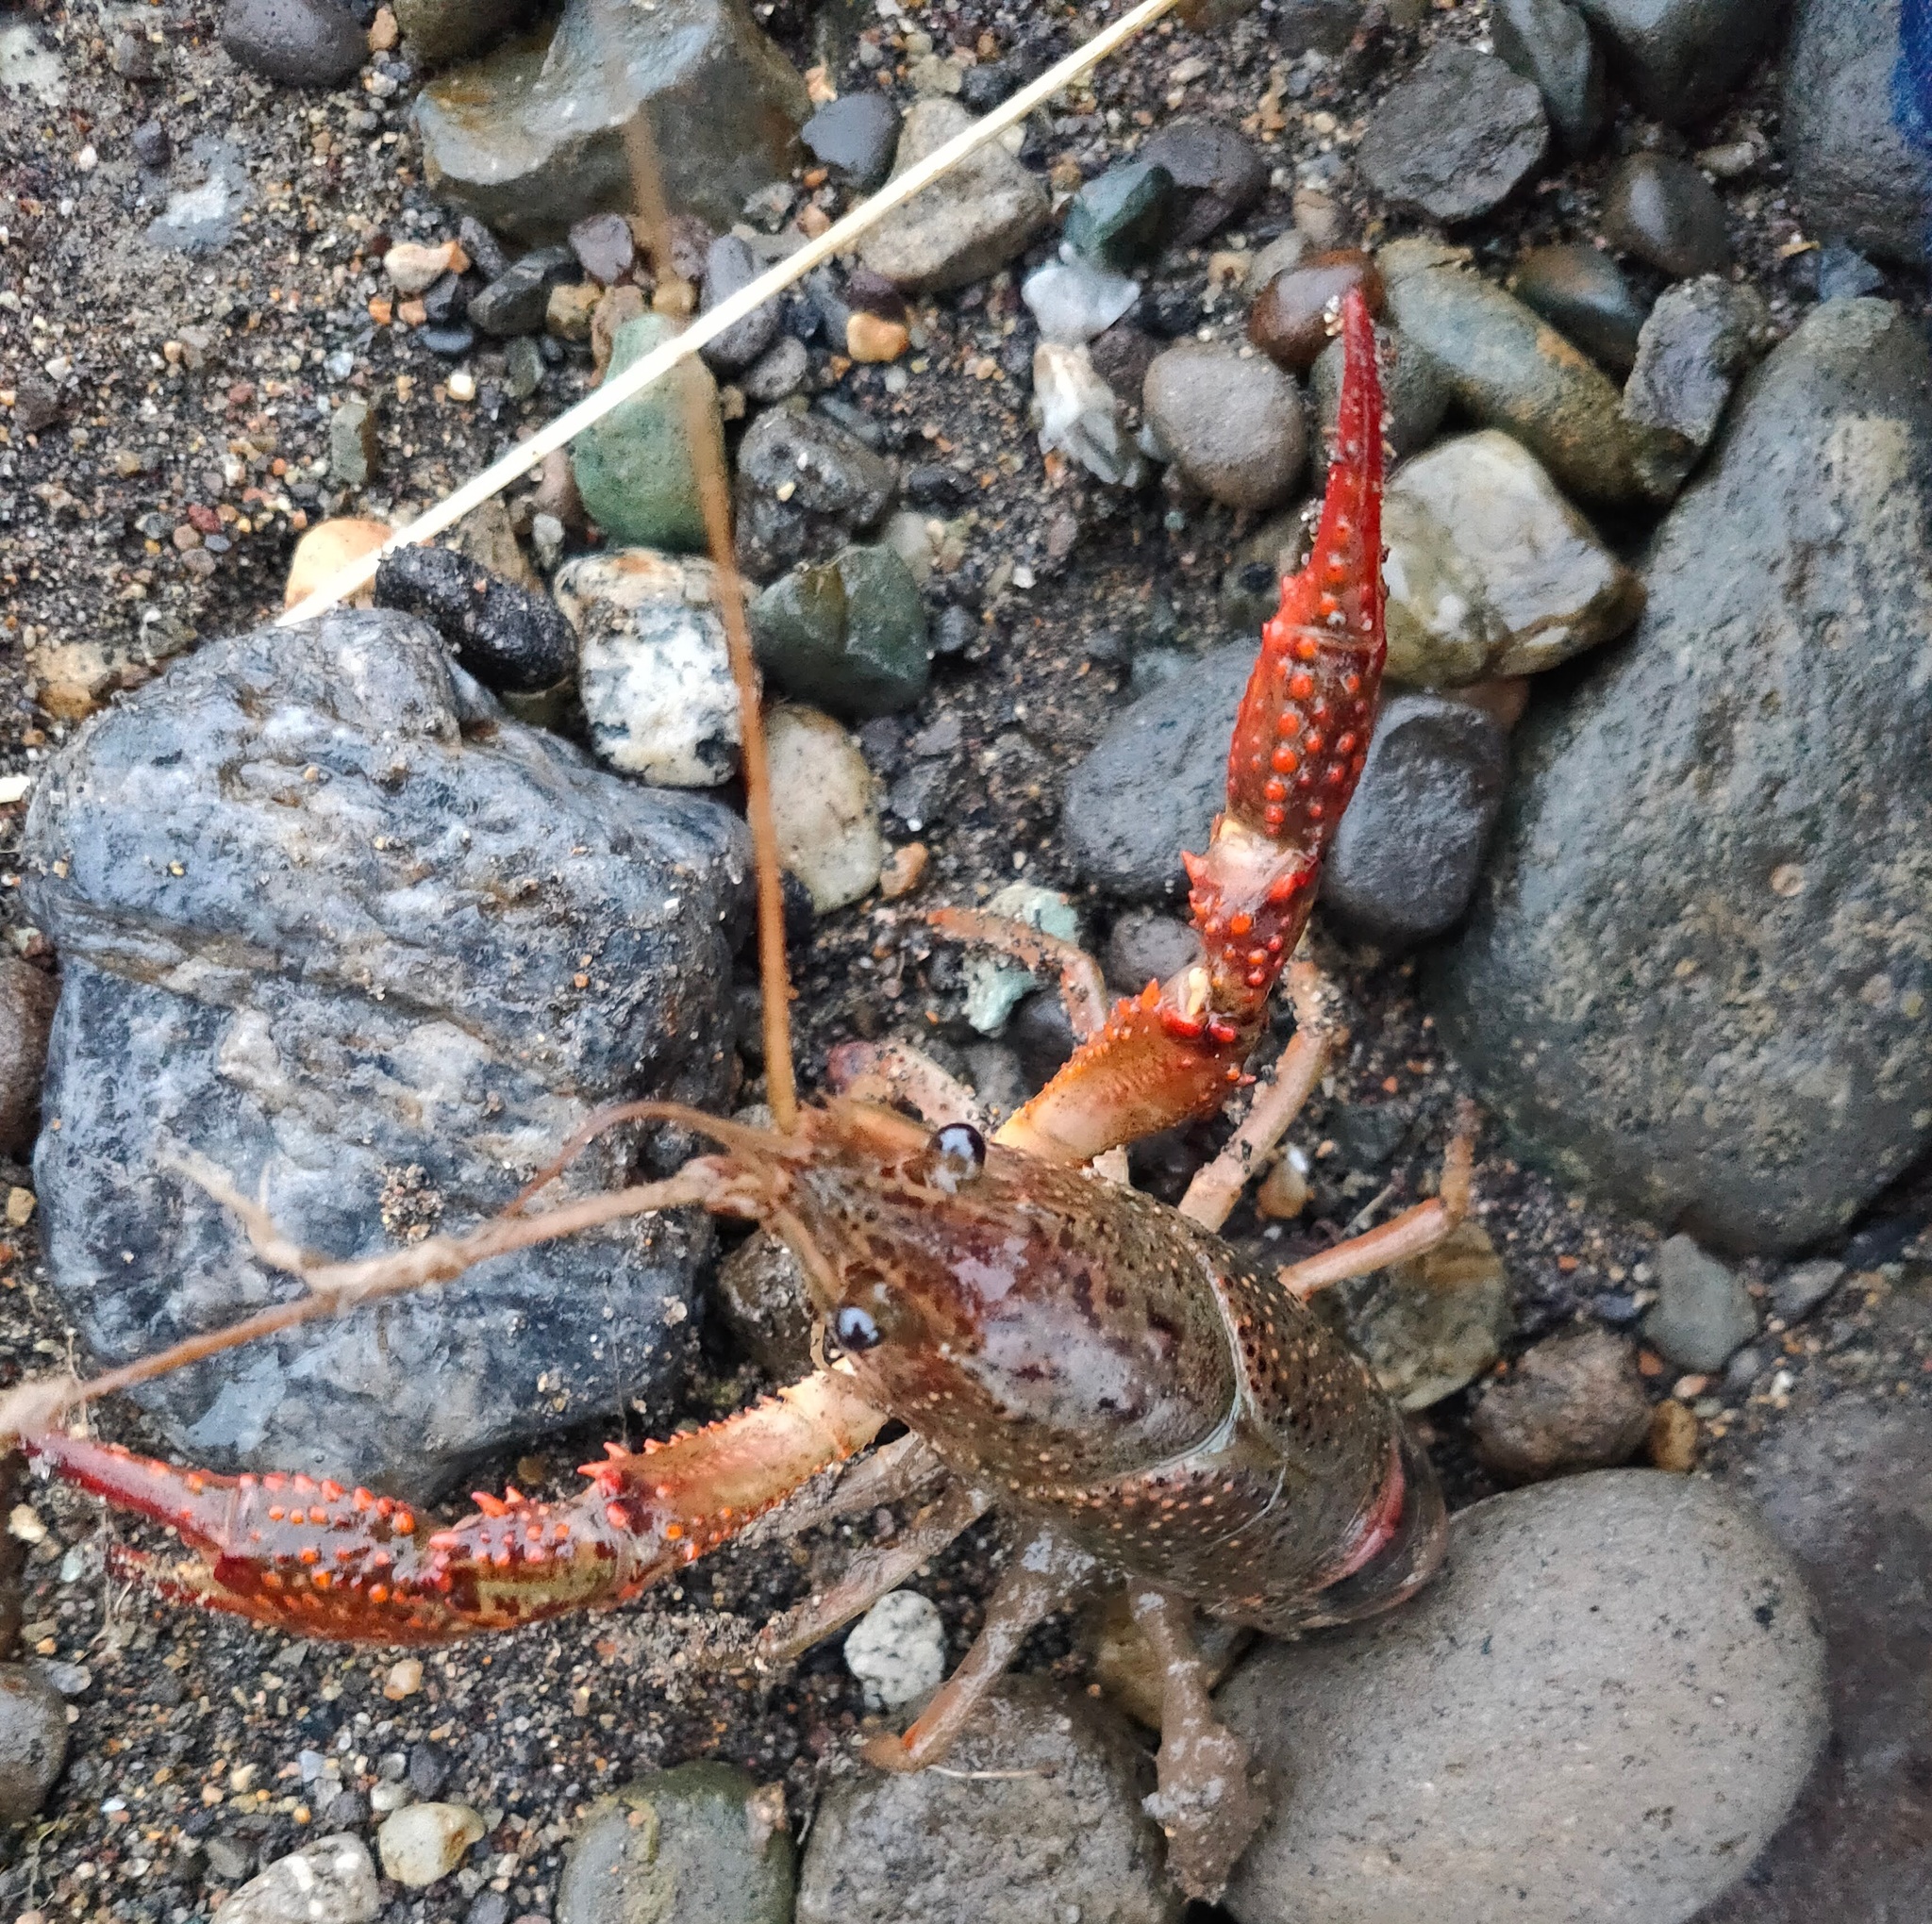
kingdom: Animalia
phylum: Arthropoda
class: Malacostraca
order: Decapoda
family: Cambaridae
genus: Procambarus
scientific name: Procambarus clarkii
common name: Red swamp crayfish
